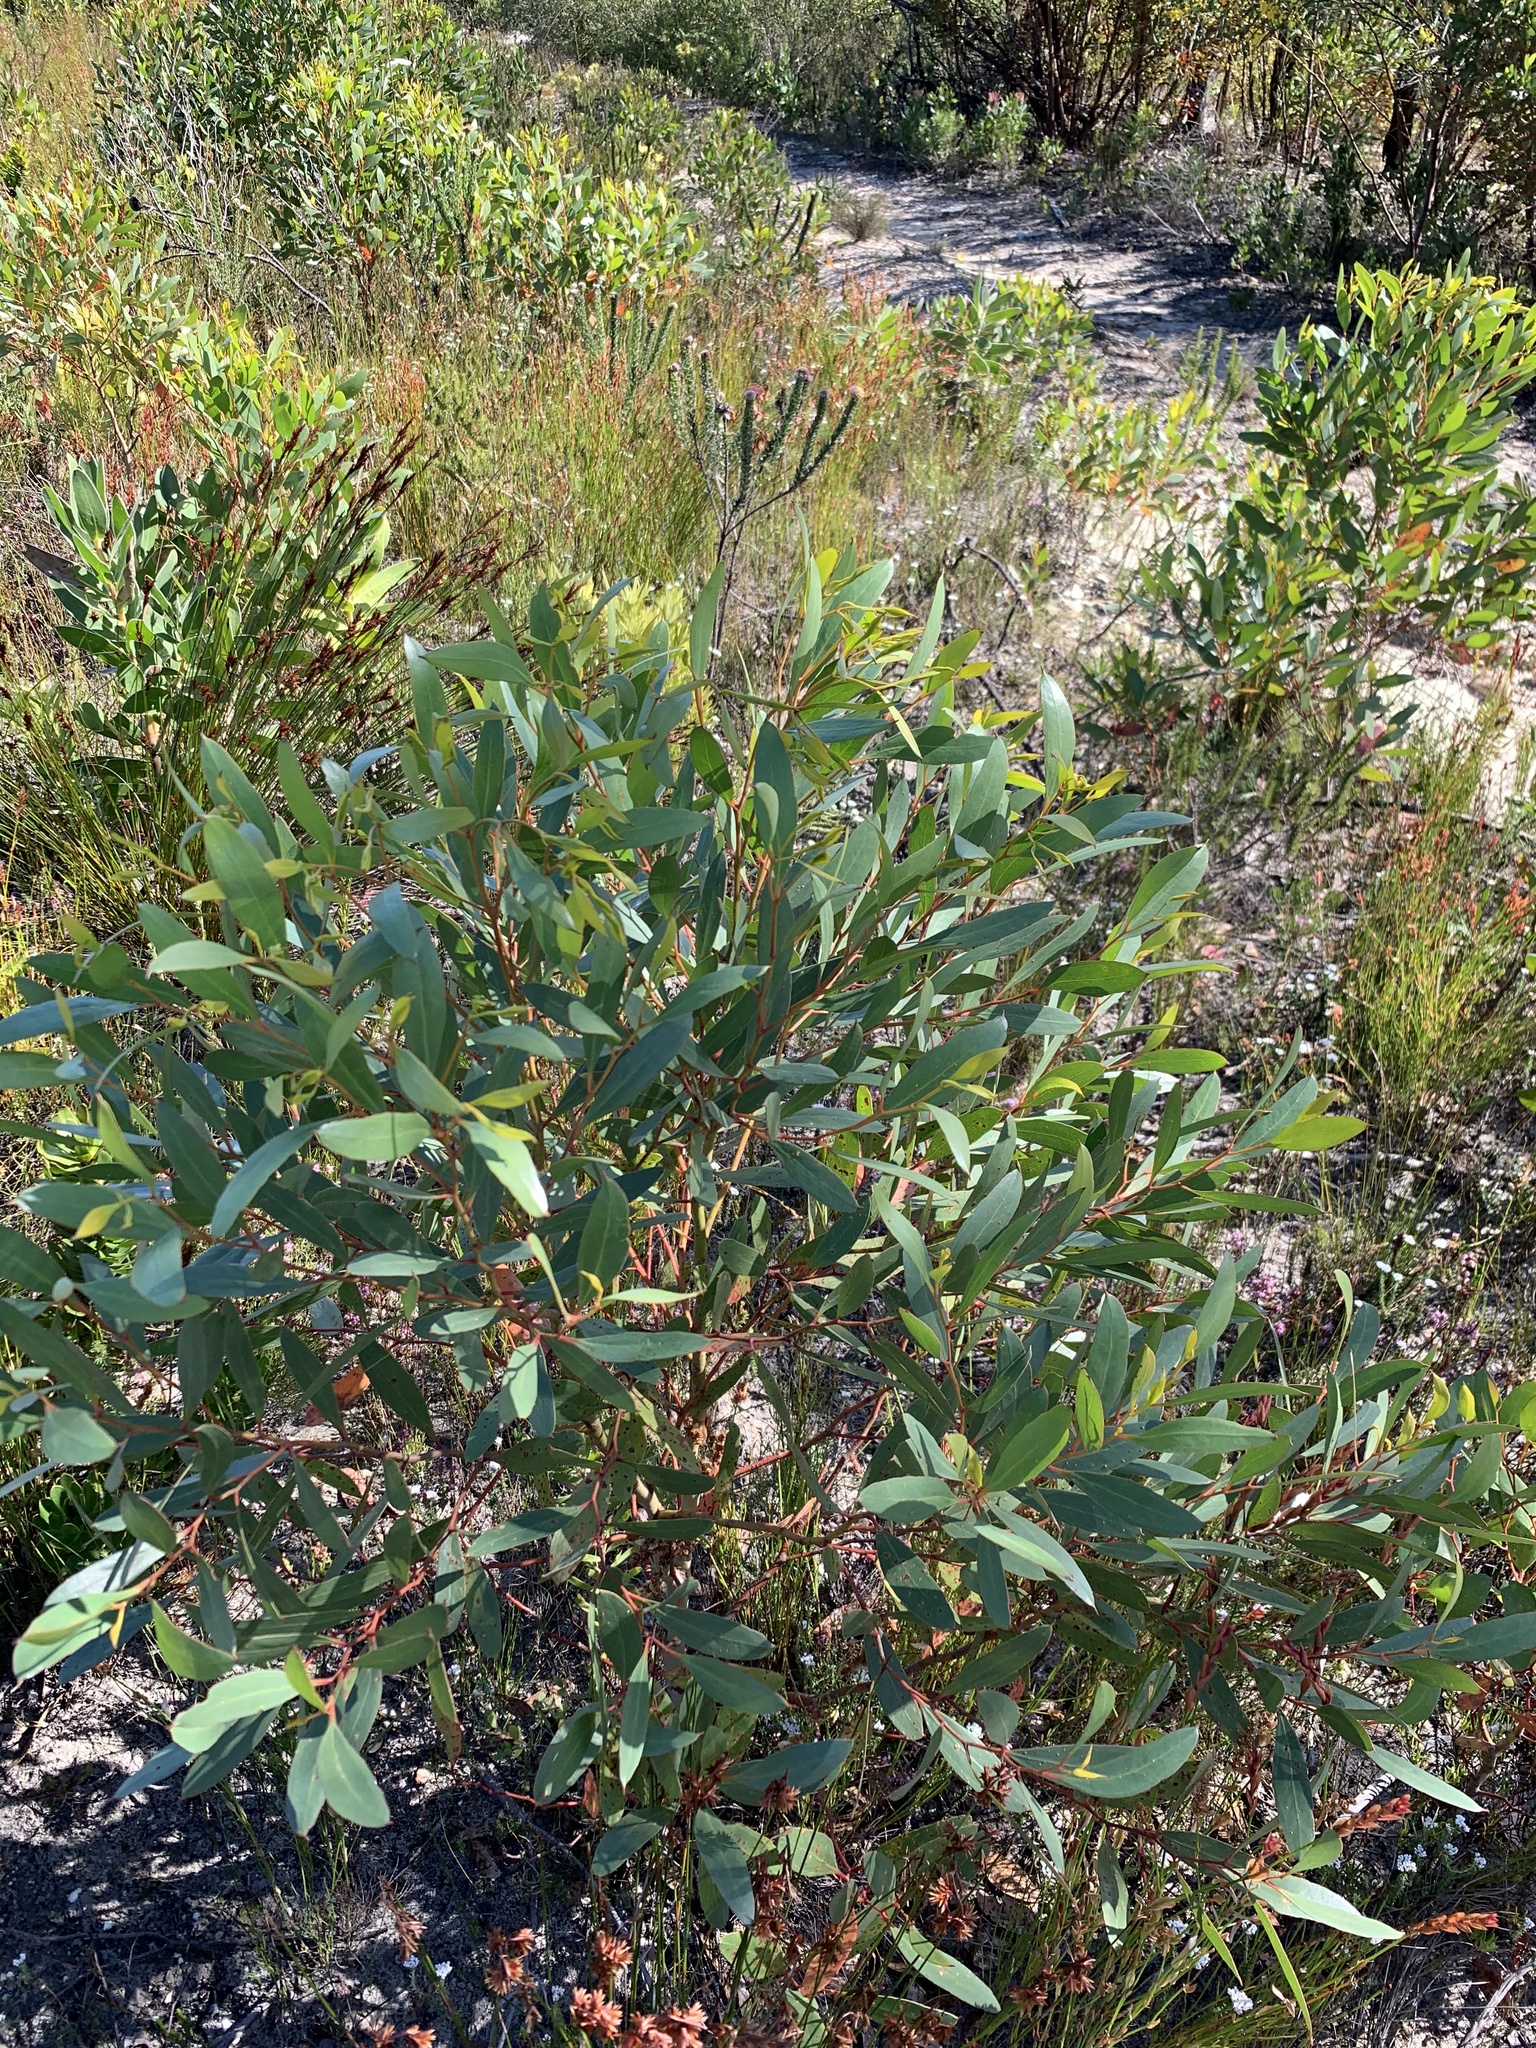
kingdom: Plantae
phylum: Tracheophyta
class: Magnoliopsida
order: Myrtales
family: Myrtaceae
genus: Eucalyptus
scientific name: Eucalyptus conferruminata
